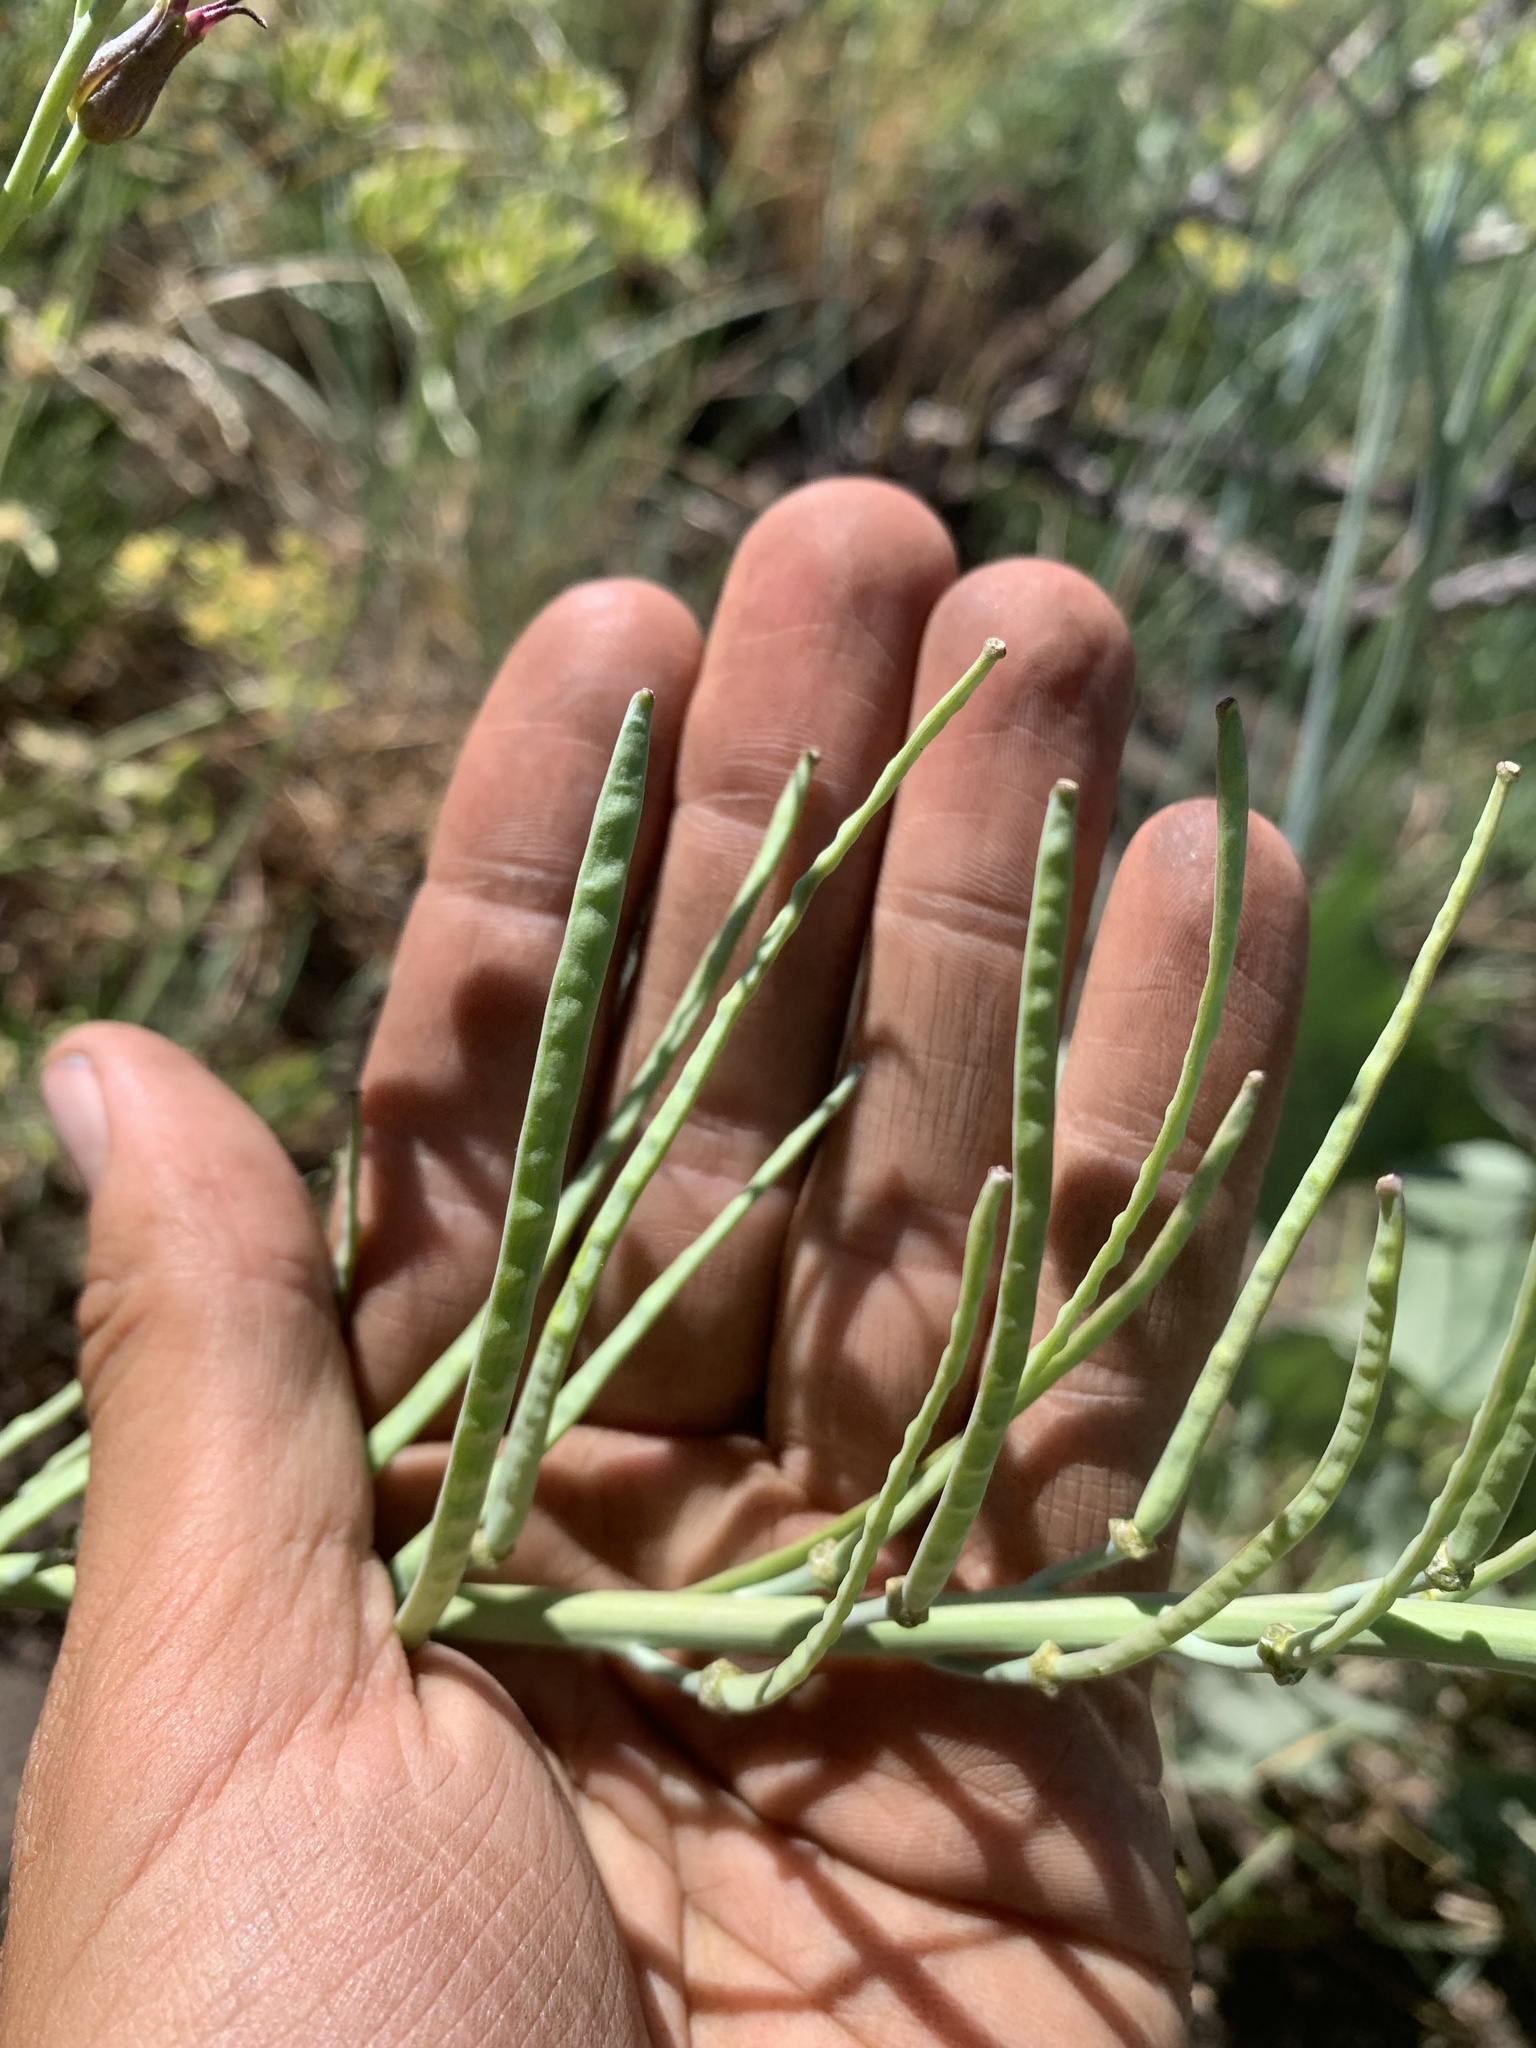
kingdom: Plantae
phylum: Tracheophyta
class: Magnoliopsida
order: Brassicales
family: Brassicaceae
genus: Streptanthus
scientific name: Streptanthus cordatus
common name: Heart-leaf jewel-flower
